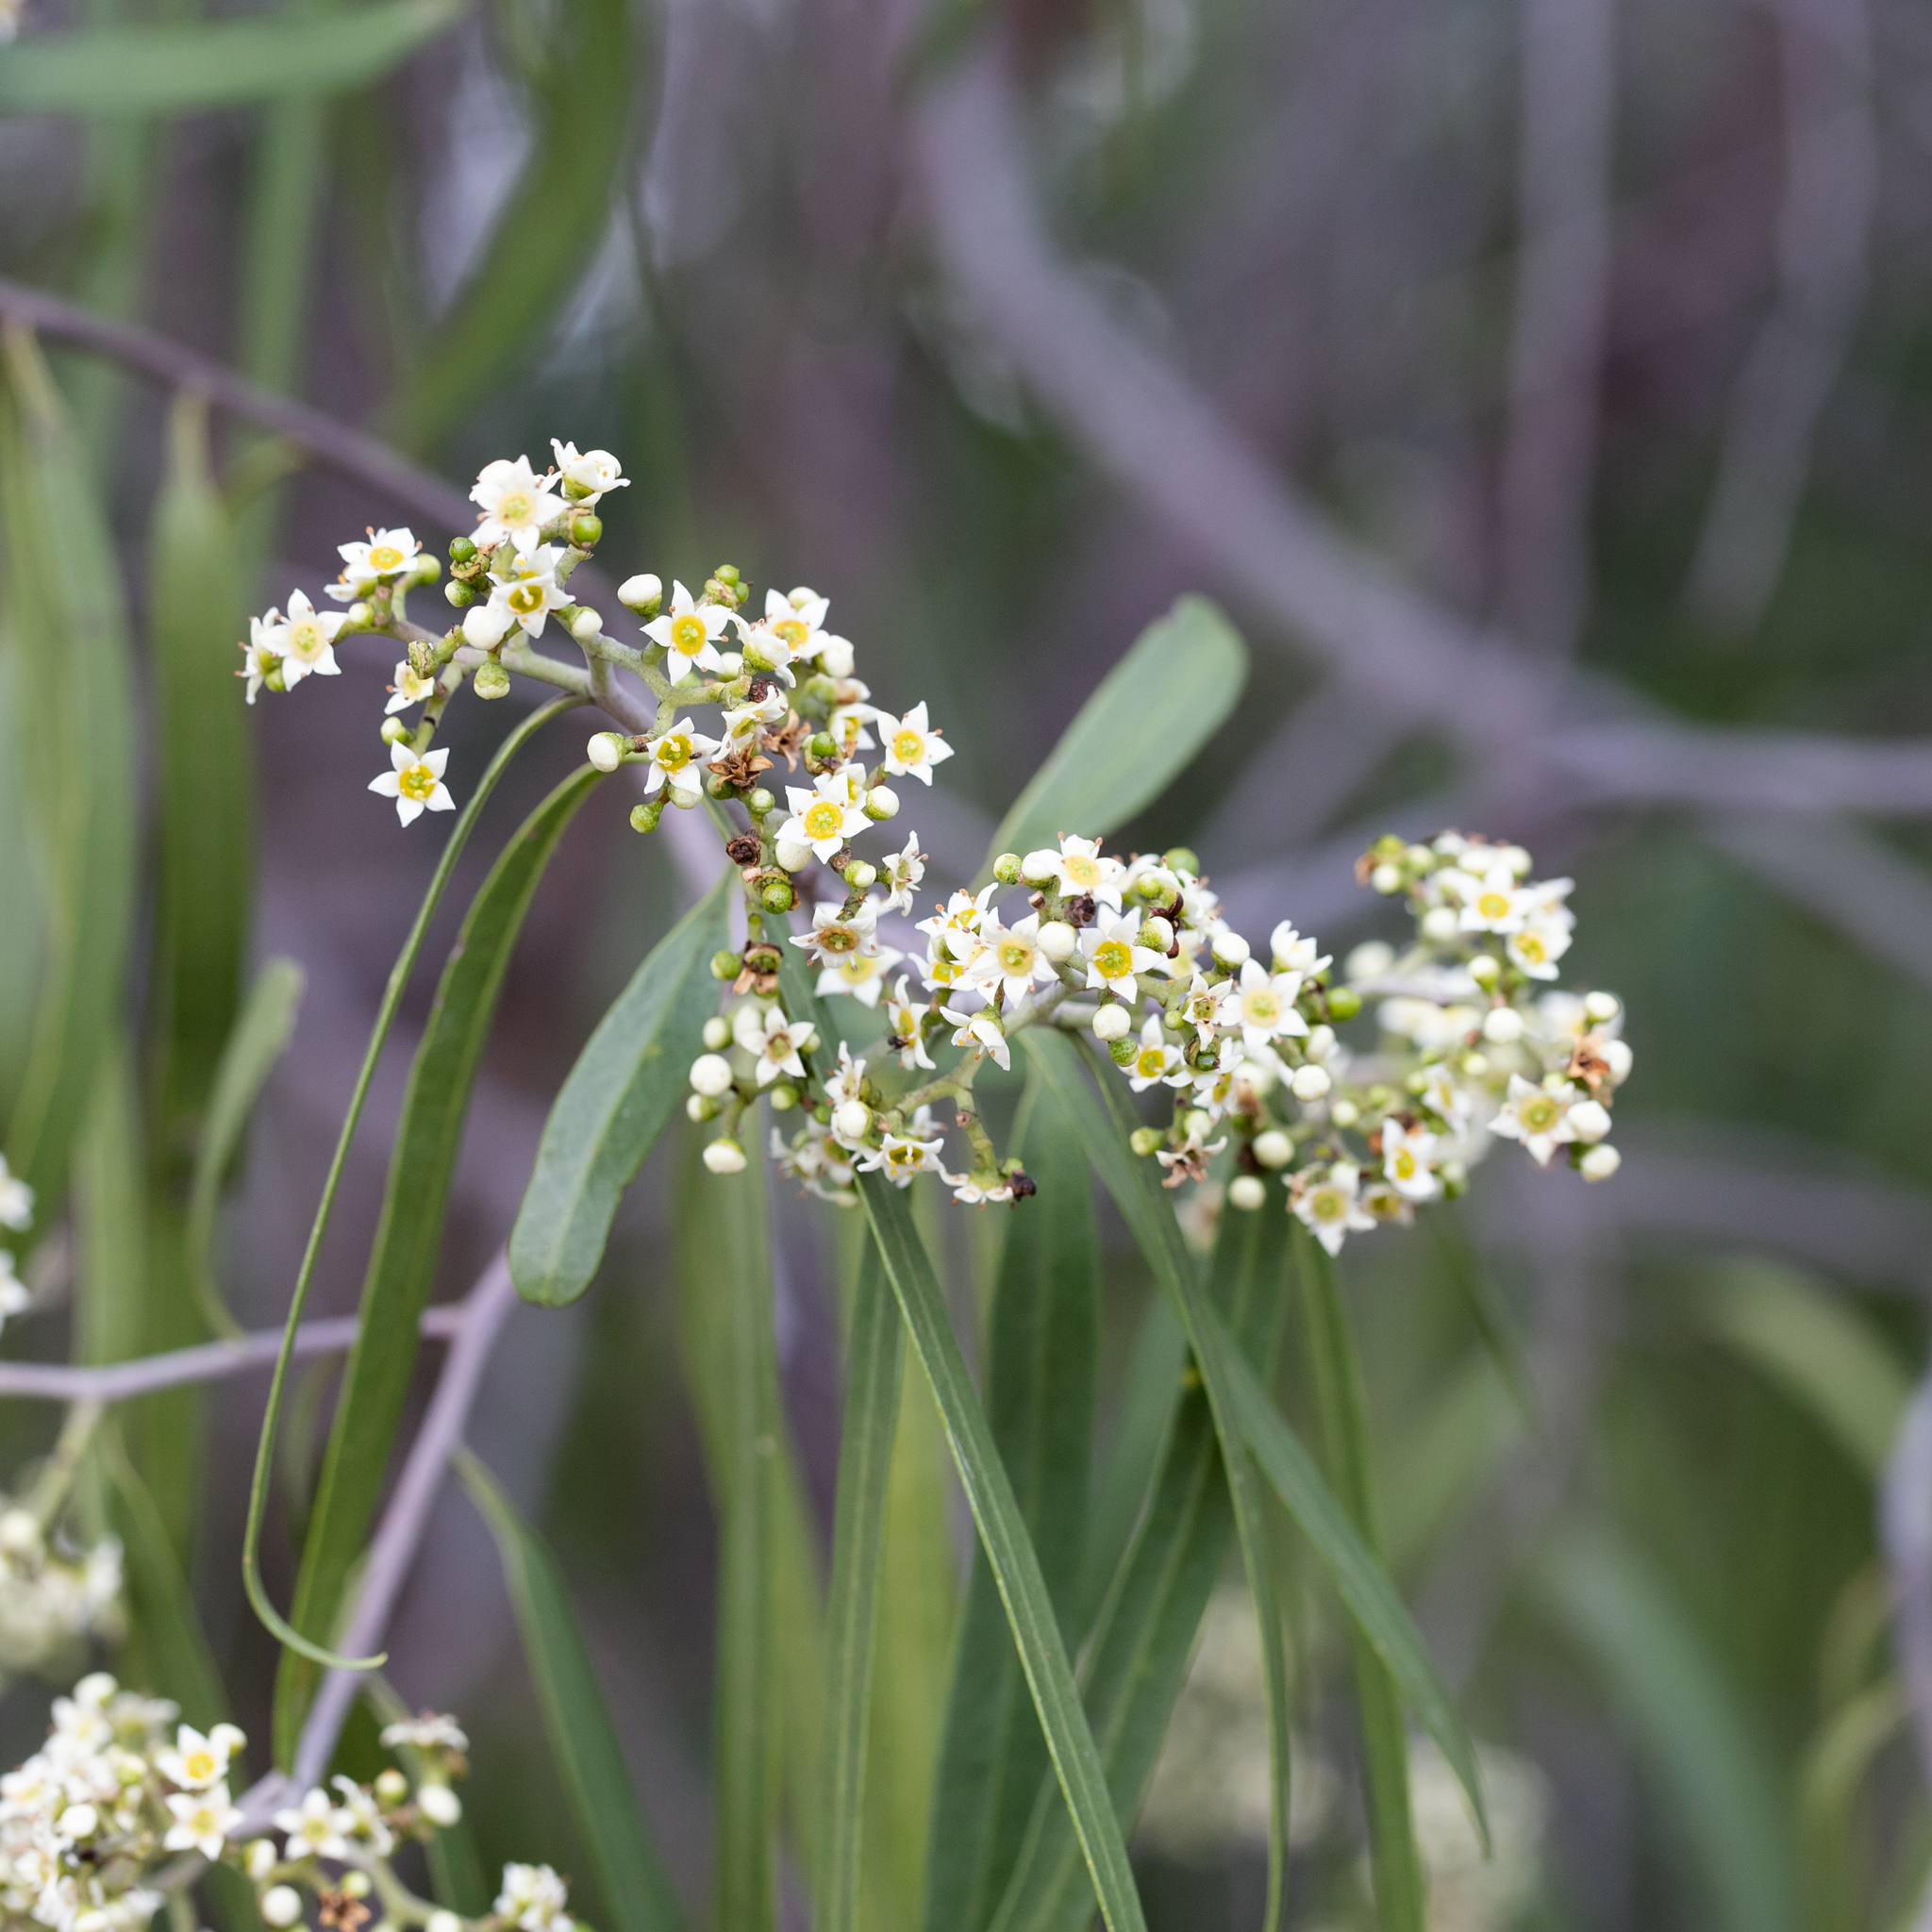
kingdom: Plantae
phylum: Tracheophyta
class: Magnoliopsida
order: Sapindales
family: Rutaceae
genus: Geijera
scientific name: Geijera parviflora
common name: Wilga
